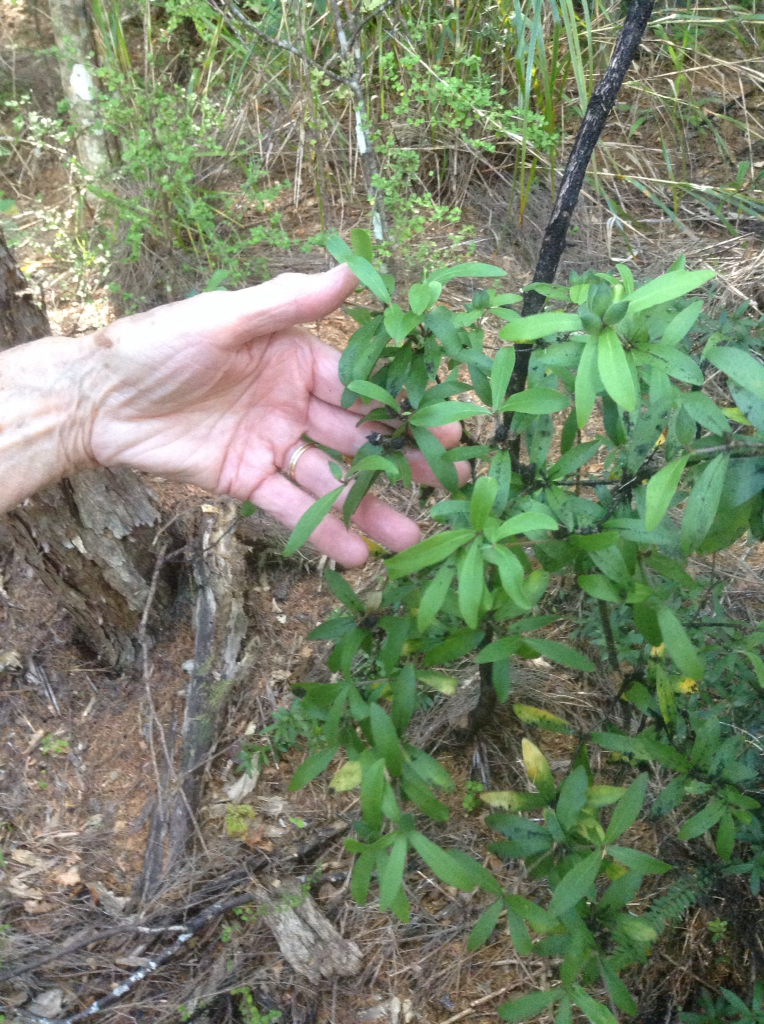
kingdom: Plantae
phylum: Tracheophyta
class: Magnoliopsida
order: Apiales
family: Pittosporaceae
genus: Pittosporum
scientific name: Pittosporum pimeleoides
